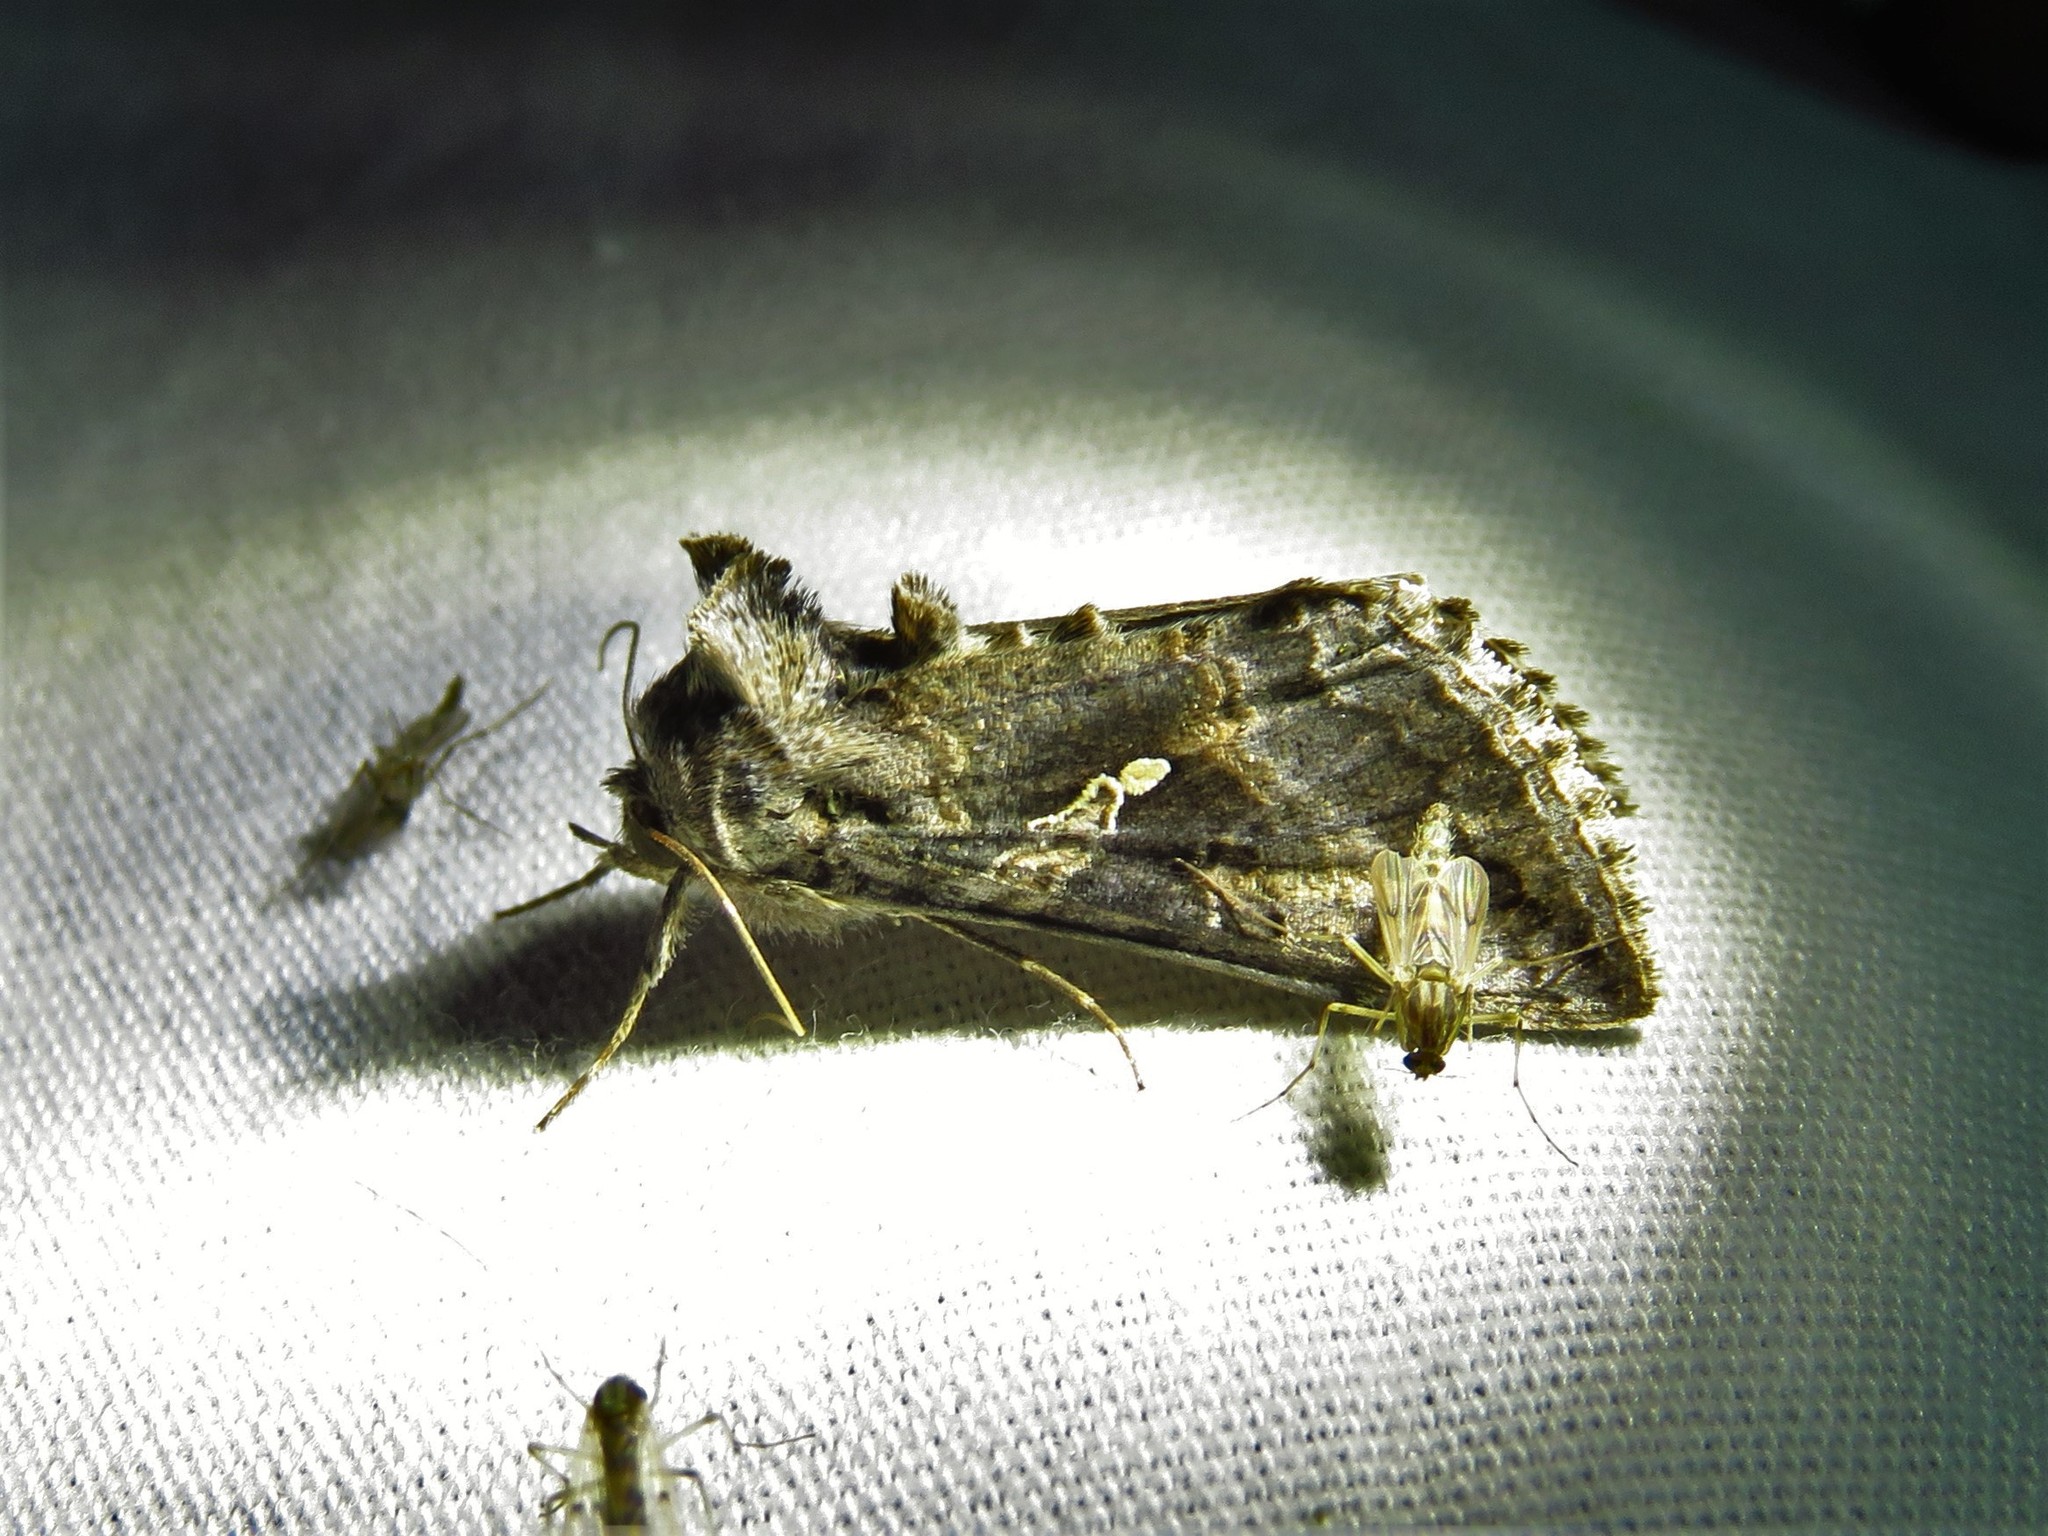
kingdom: Animalia
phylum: Arthropoda
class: Insecta
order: Lepidoptera
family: Noctuidae
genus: Rachiplusia
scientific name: Rachiplusia ou
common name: Gray looper moth
